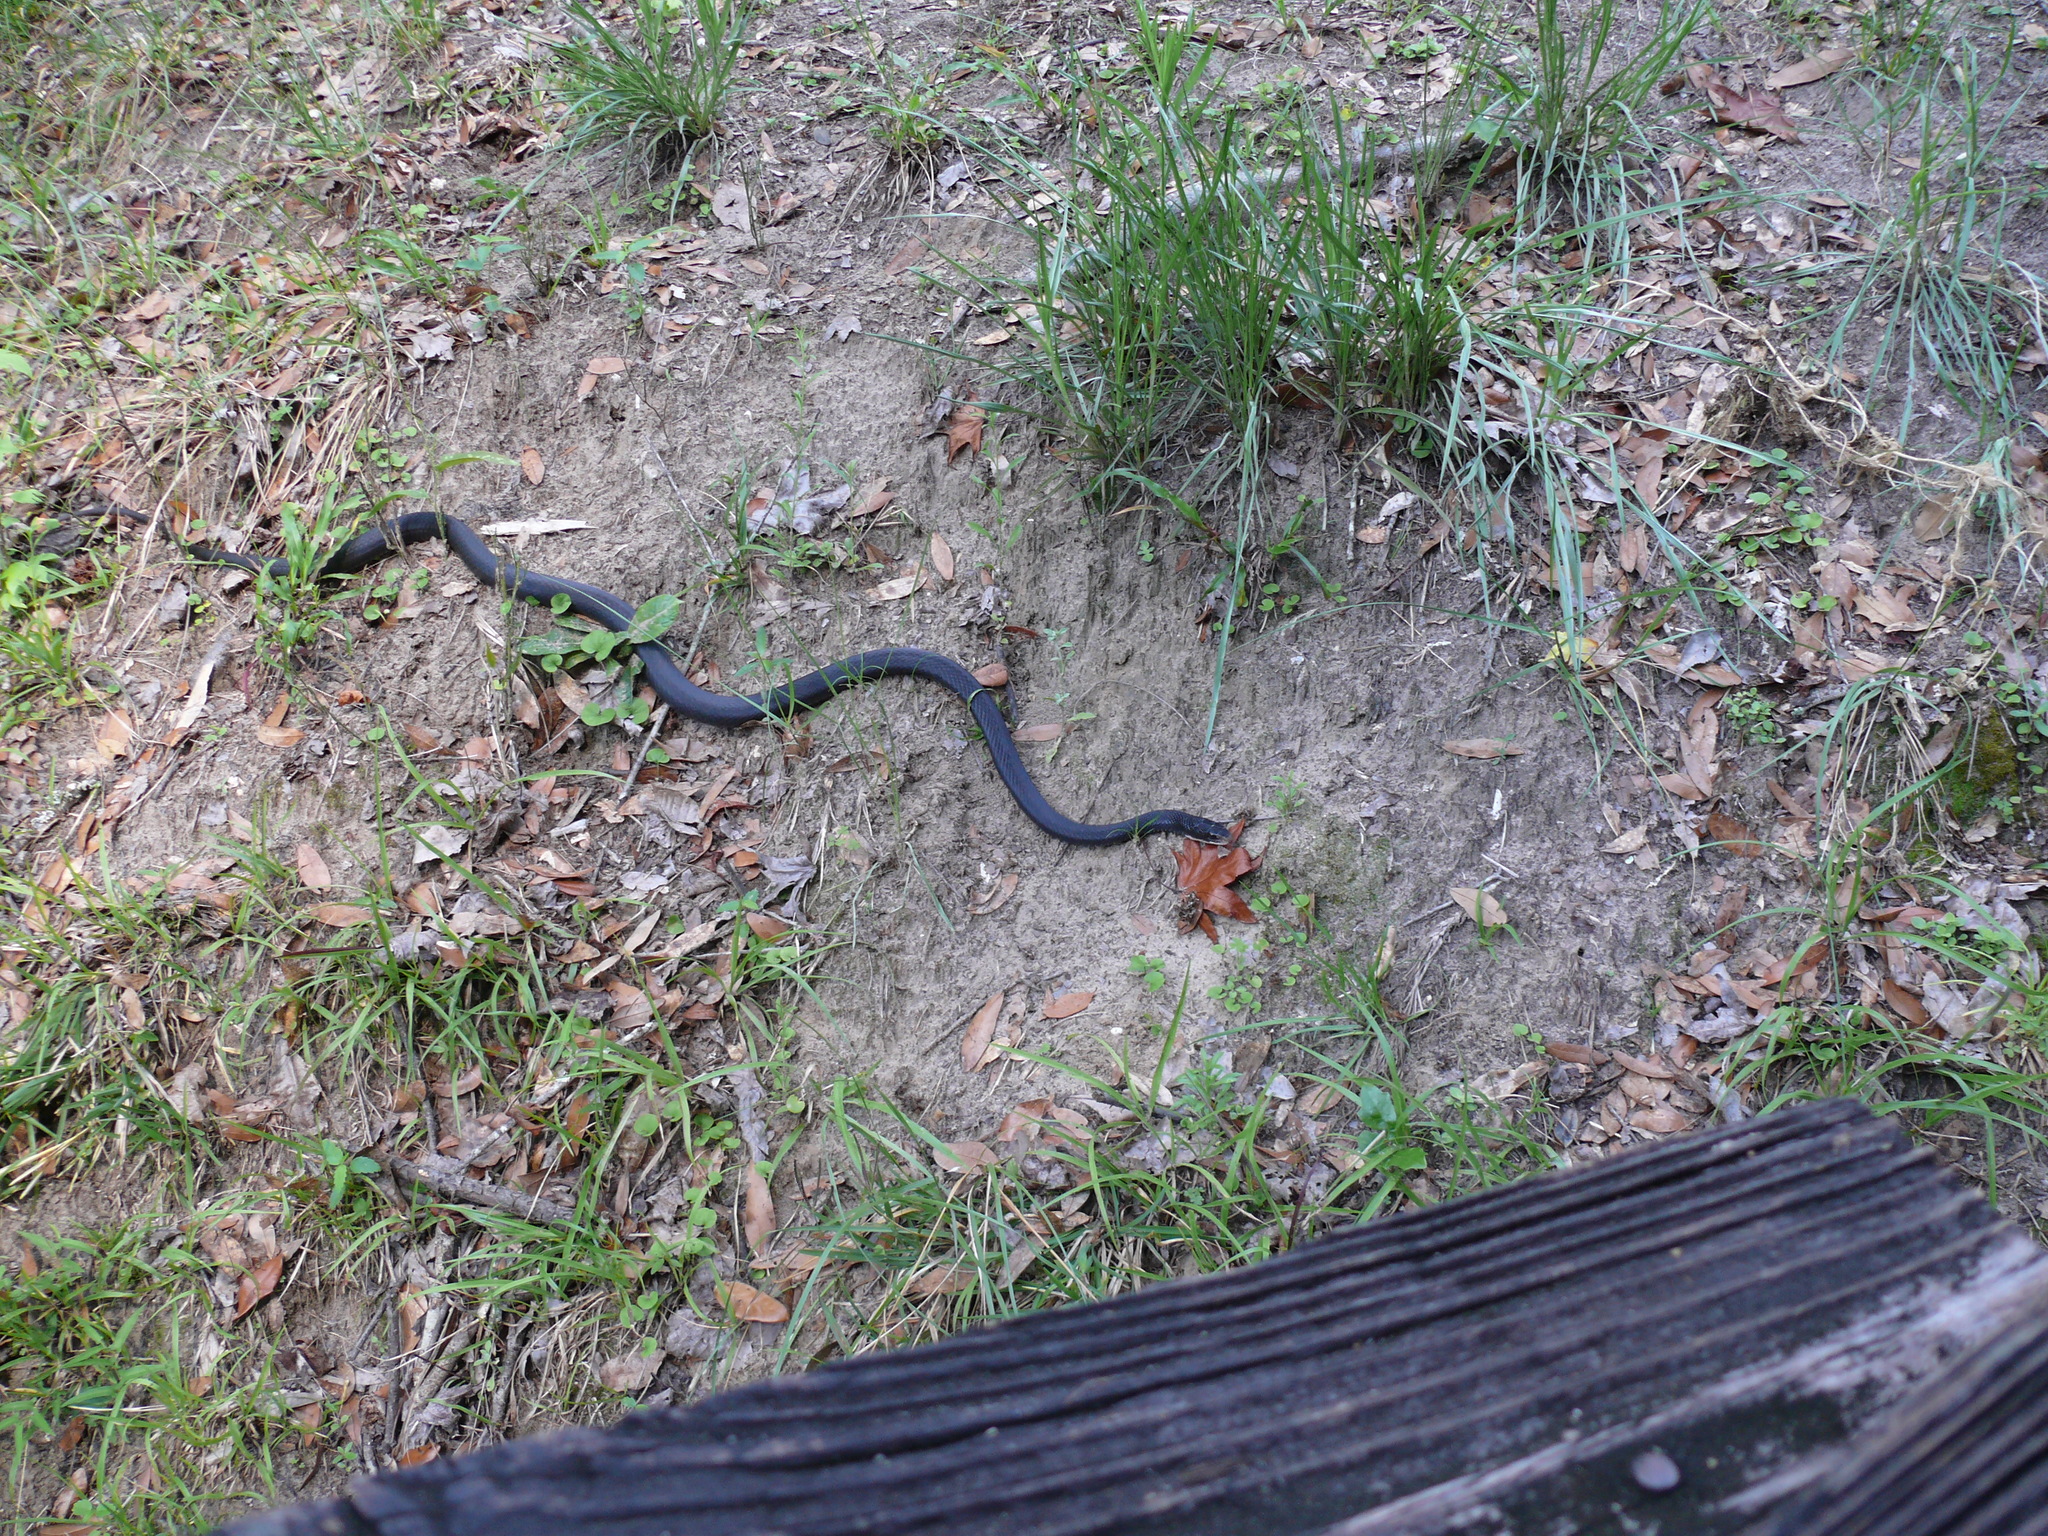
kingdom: Animalia
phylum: Chordata
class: Squamata
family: Colubridae
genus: Coluber
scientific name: Coluber constrictor
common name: Eastern racer
